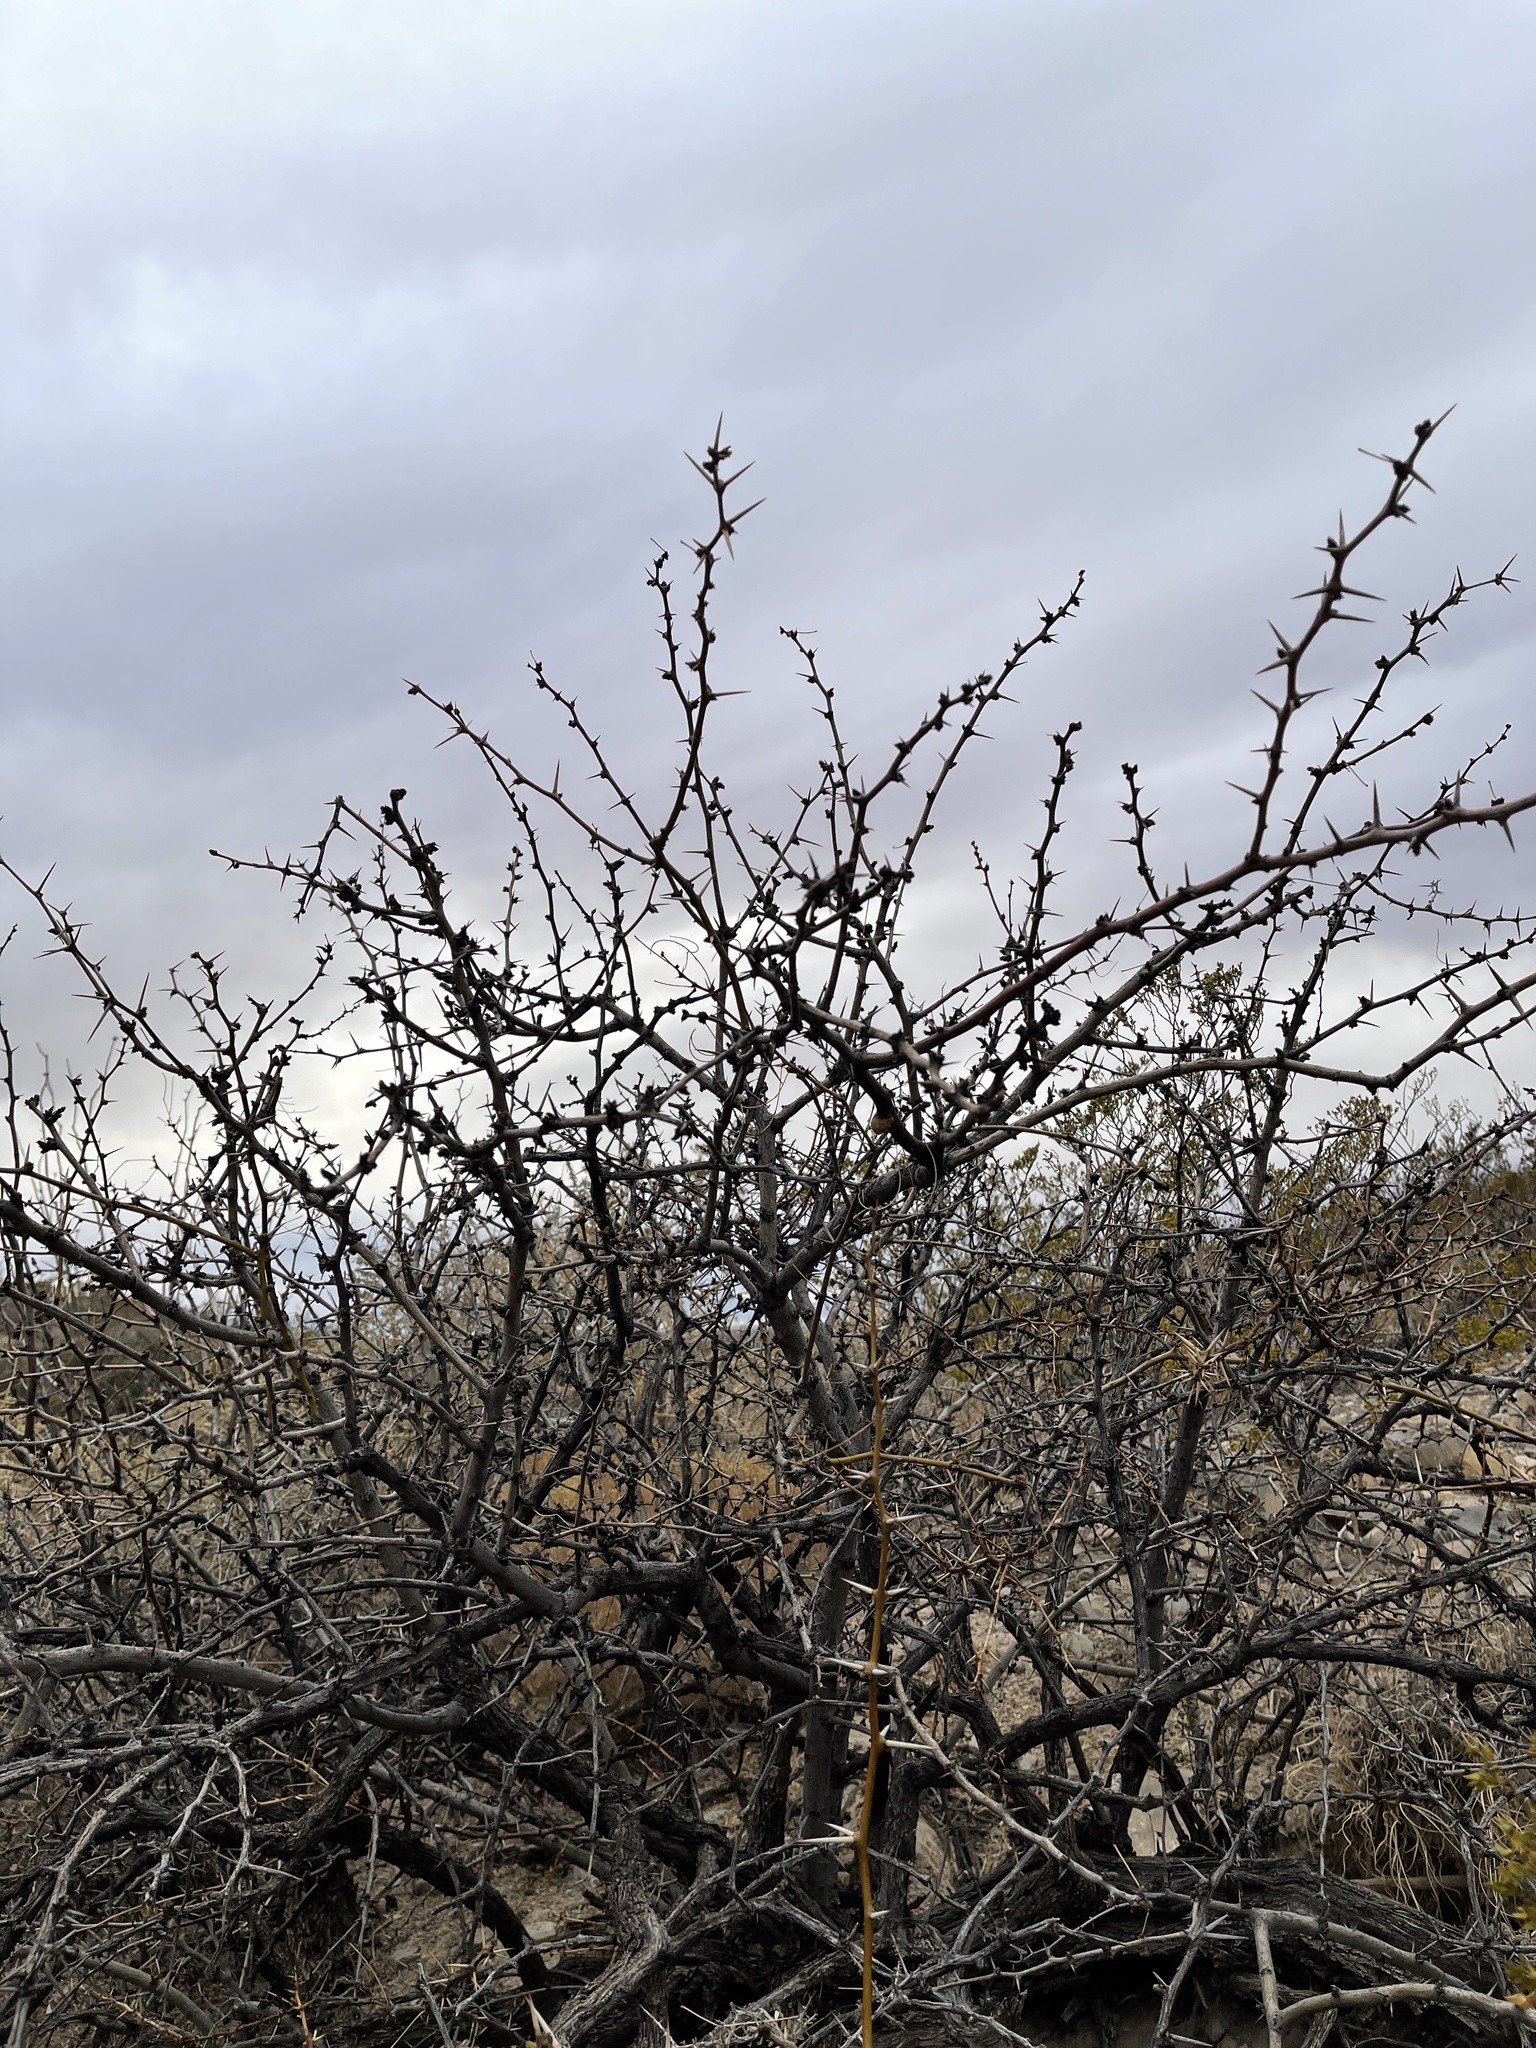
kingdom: Plantae
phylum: Tracheophyta
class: Magnoliopsida
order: Fabales
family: Fabaceae
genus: Prosopis
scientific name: Prosopis glandulosa
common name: Honey mesquite
